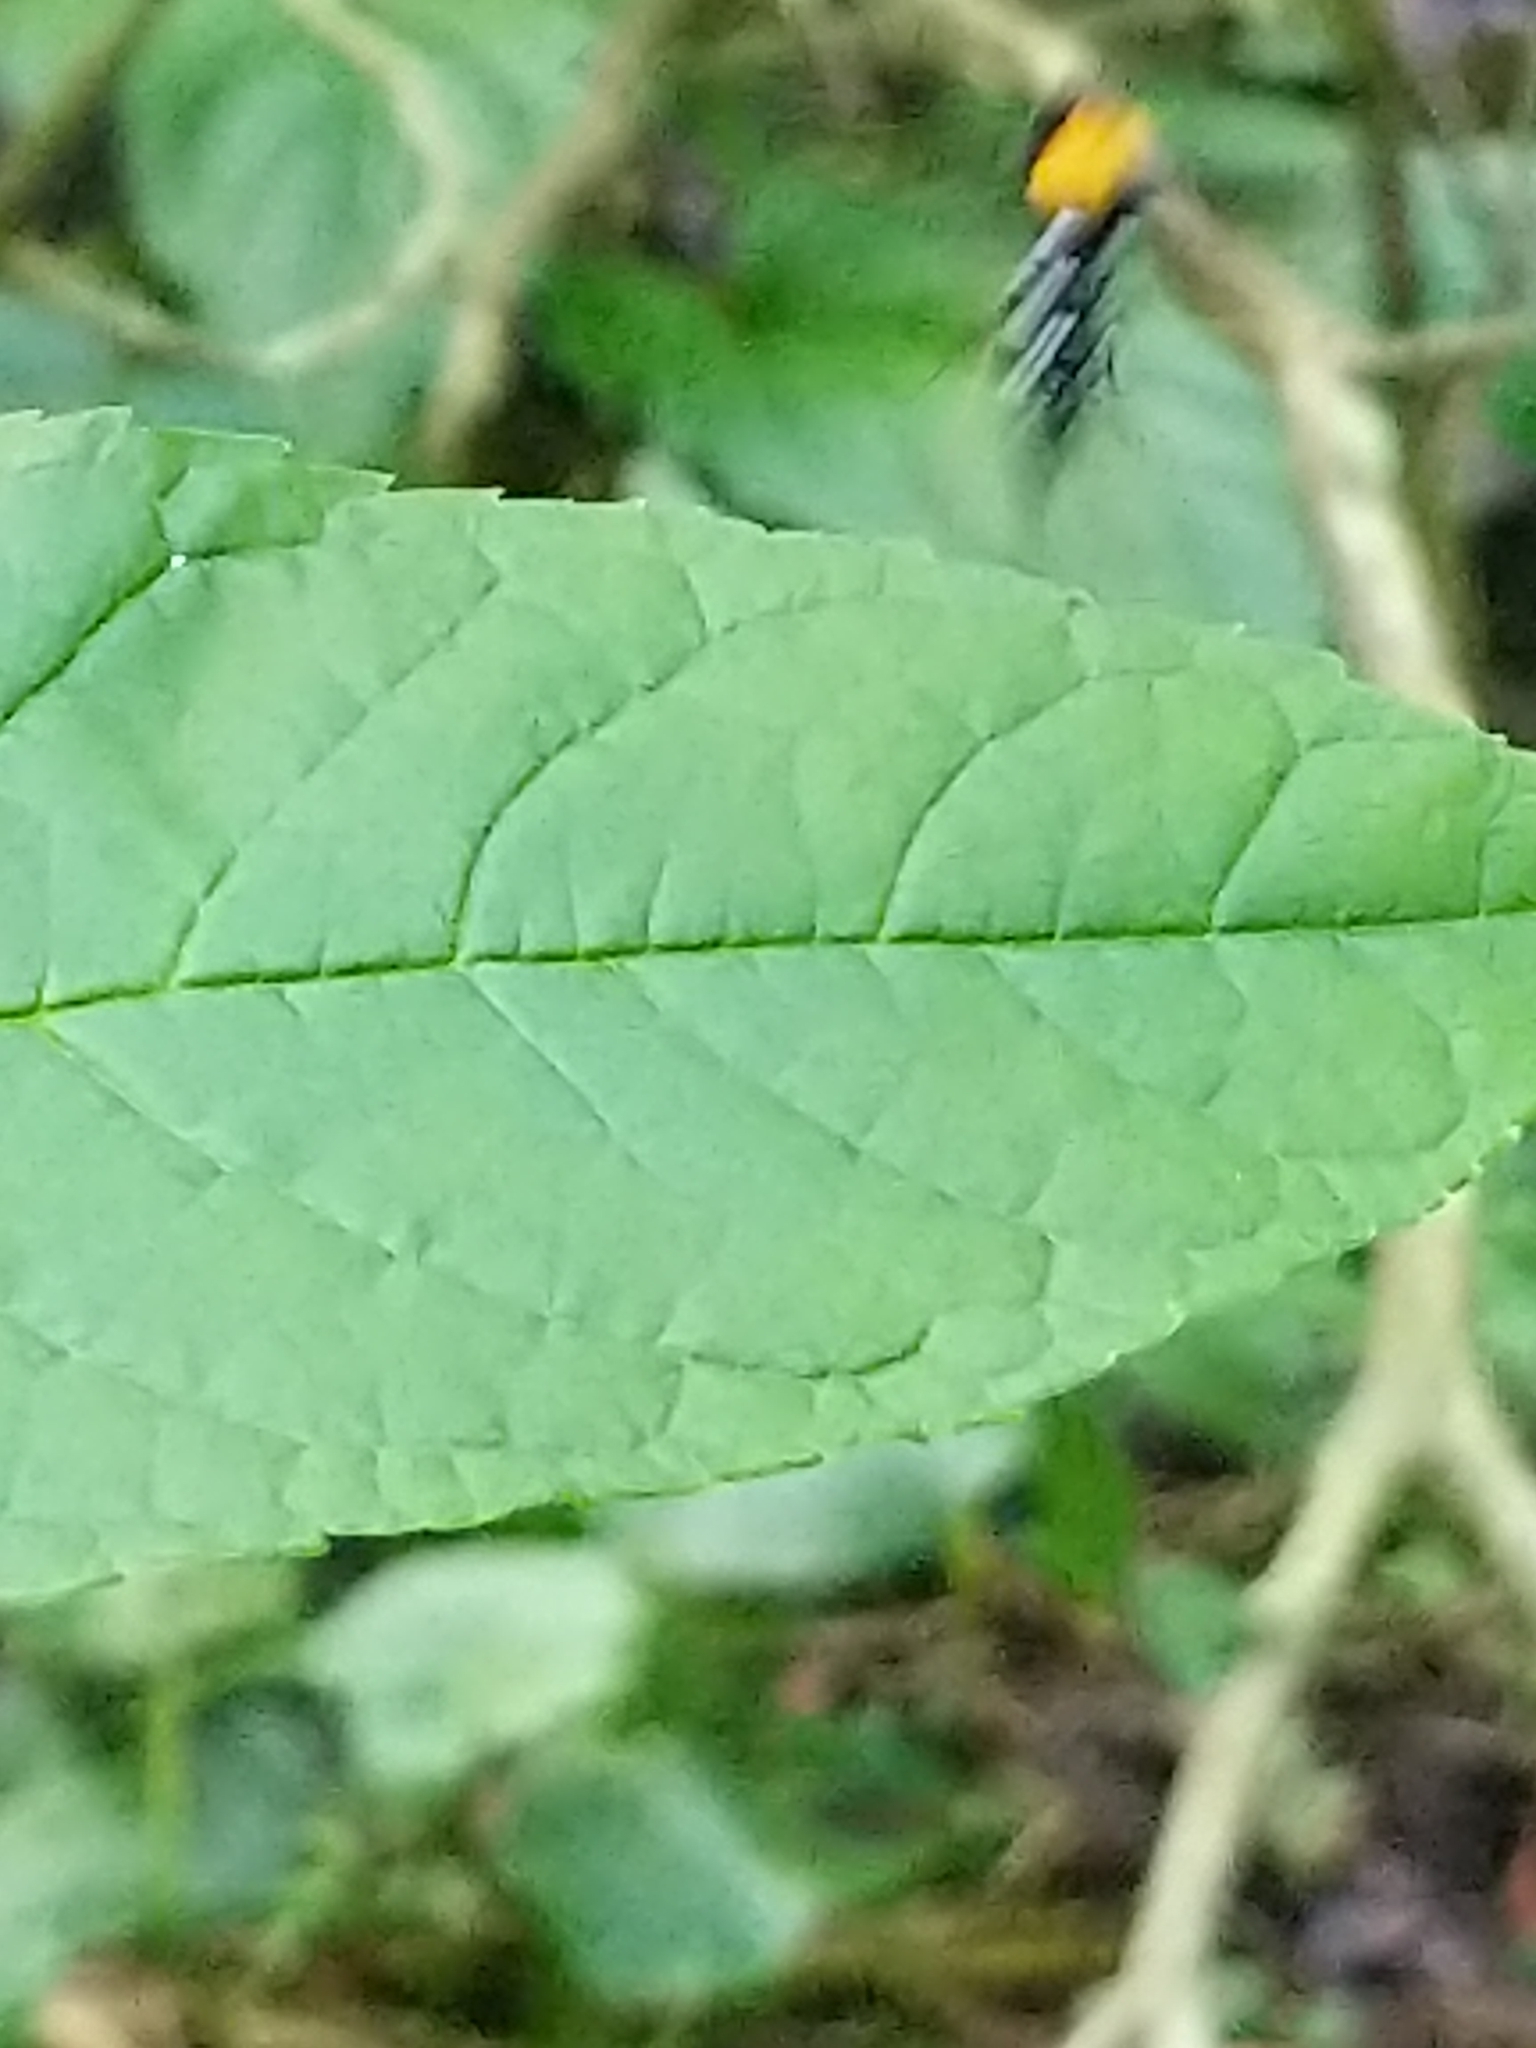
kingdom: Animalia
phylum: Arthropoda
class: Insecta
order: Diptera
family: Rhagionidae
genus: Chrysopilus
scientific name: Chrysopilus thoracicus
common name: Golden-backed snipe fly
